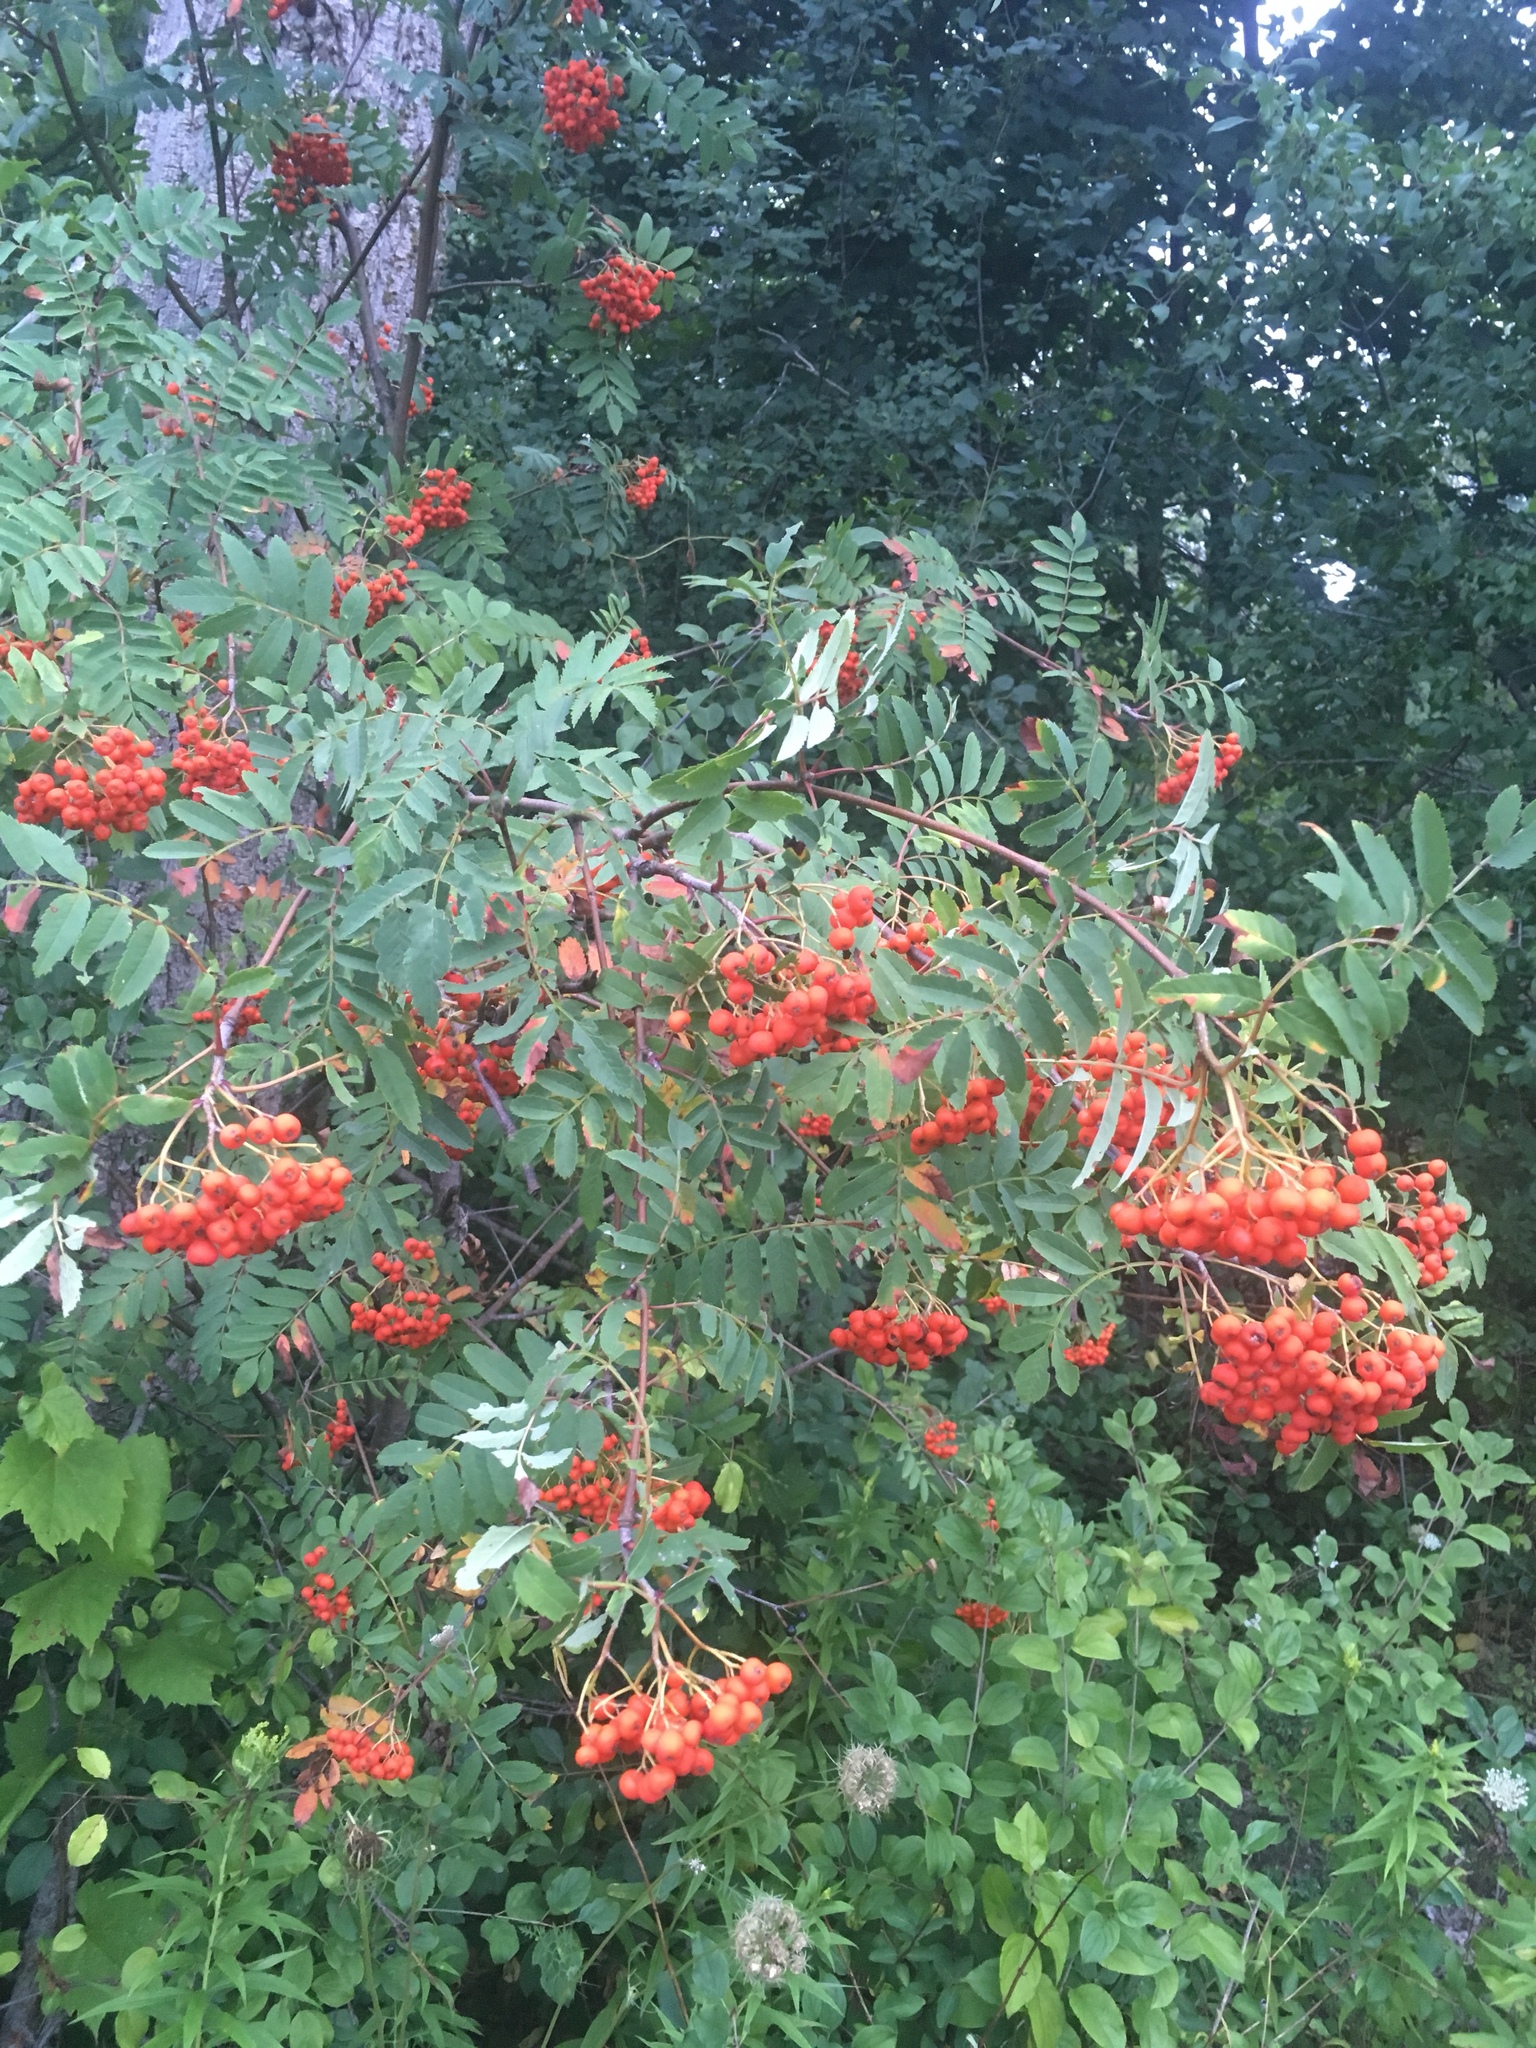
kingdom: Plantae
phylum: Tracheophyta
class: Magnoliopsida
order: Rosales
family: Rosaceae
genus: Sorbus
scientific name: Sorbus aucuparia
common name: Rowan
